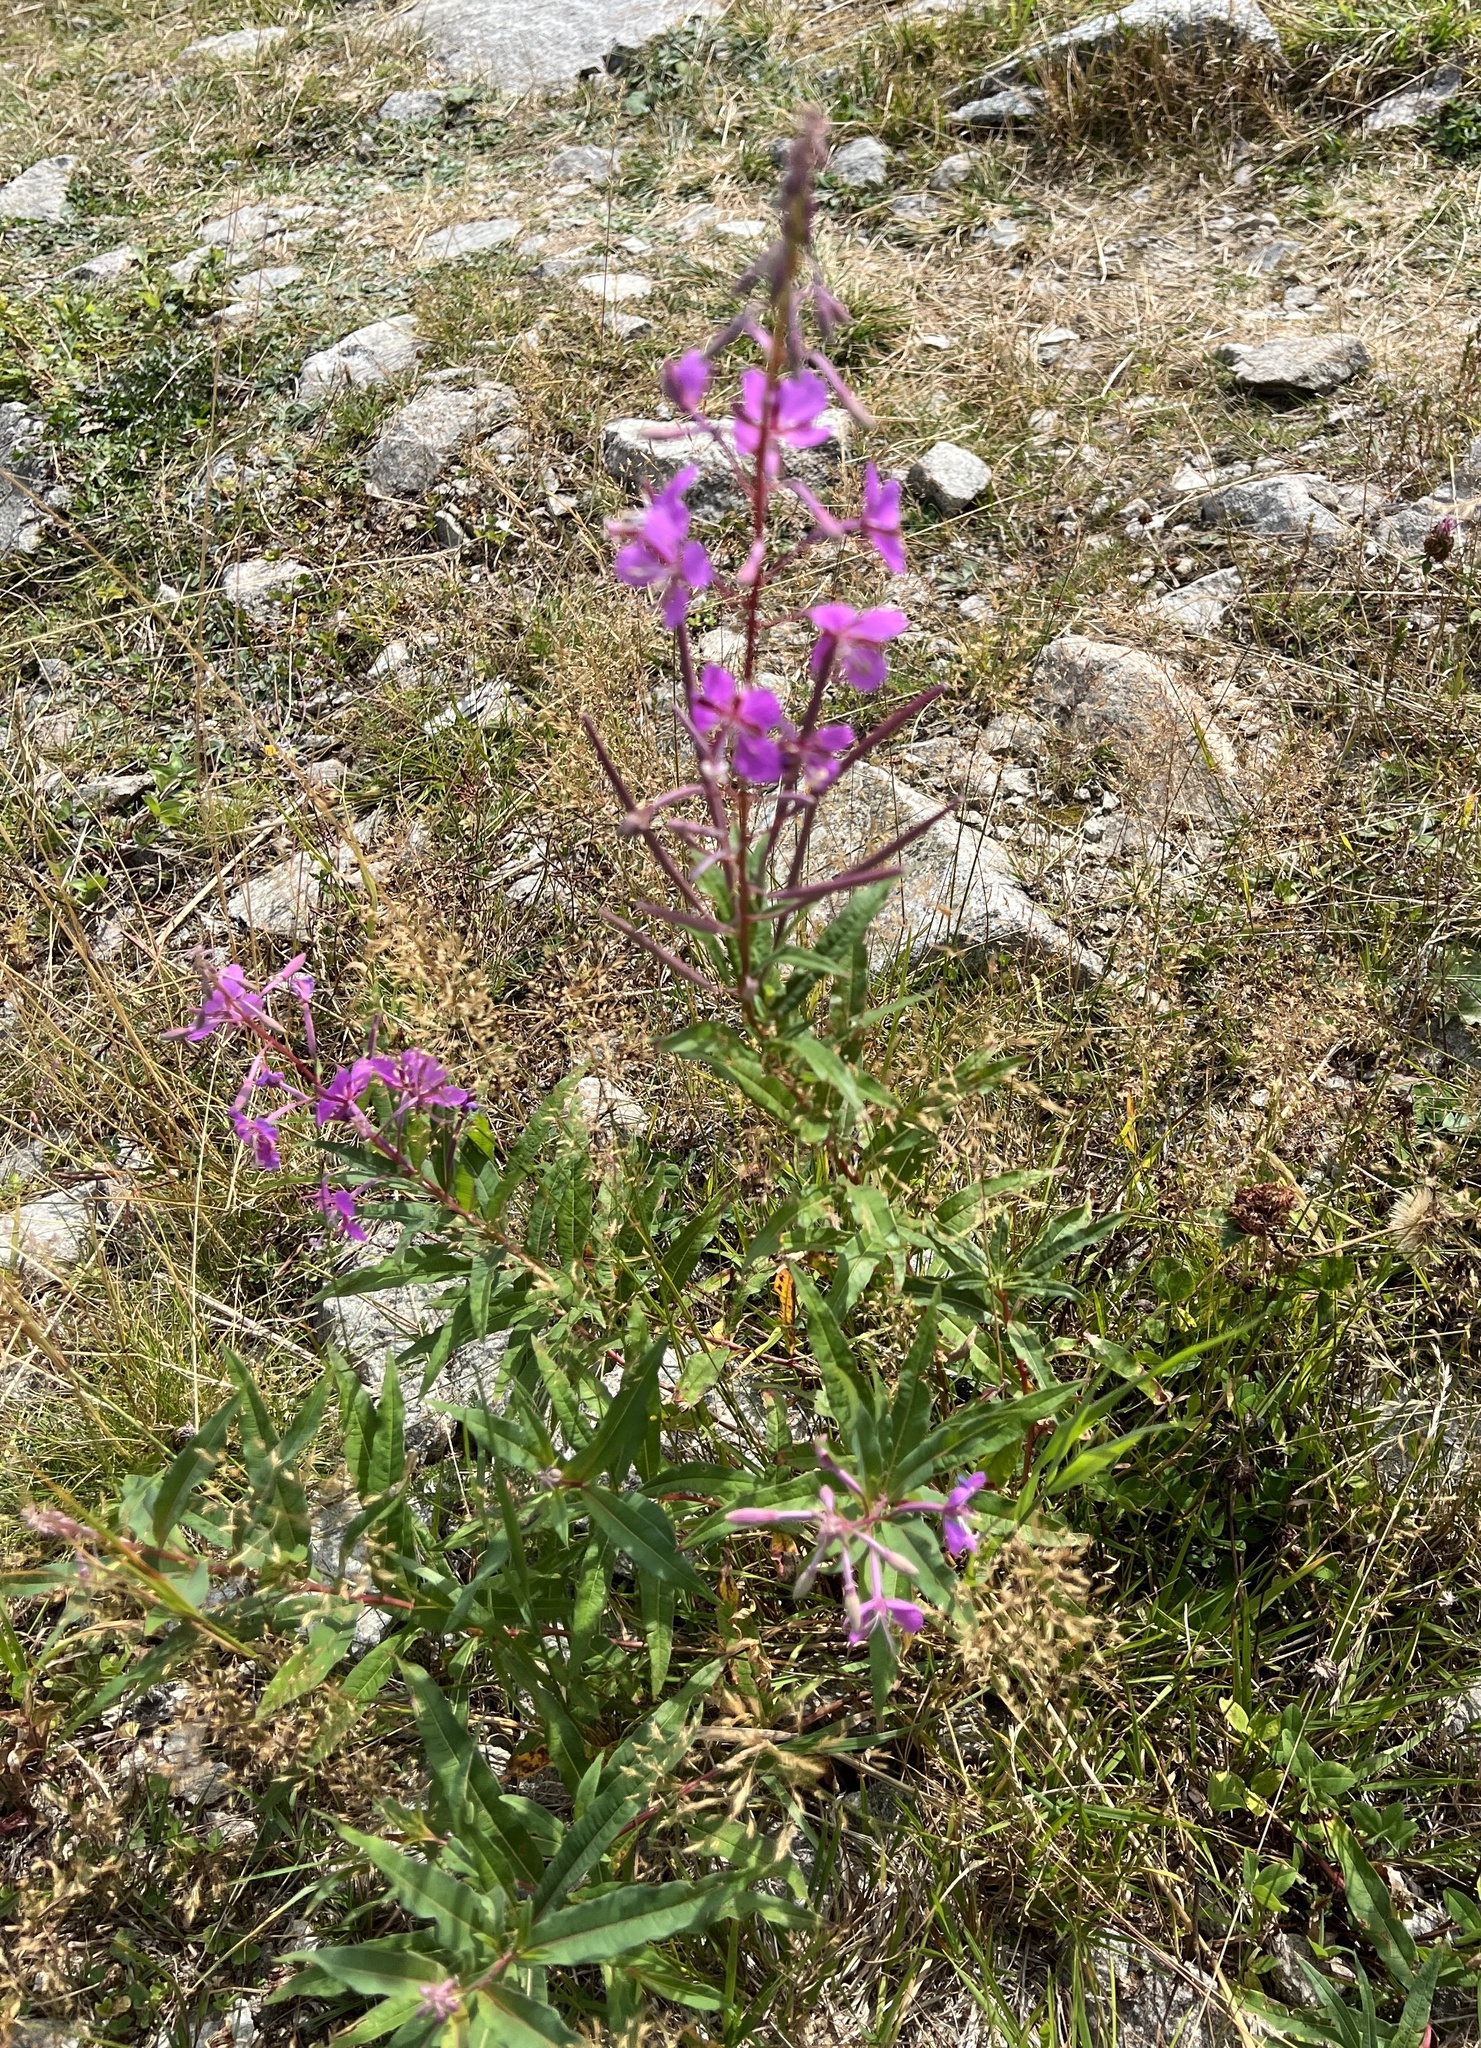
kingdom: Plantae
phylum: Tracheophyta
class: Magnoliopsida
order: Myrtales
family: Onagraceae
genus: Chamaenerion
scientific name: Chamaenerion angustifolium
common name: Fireweed
